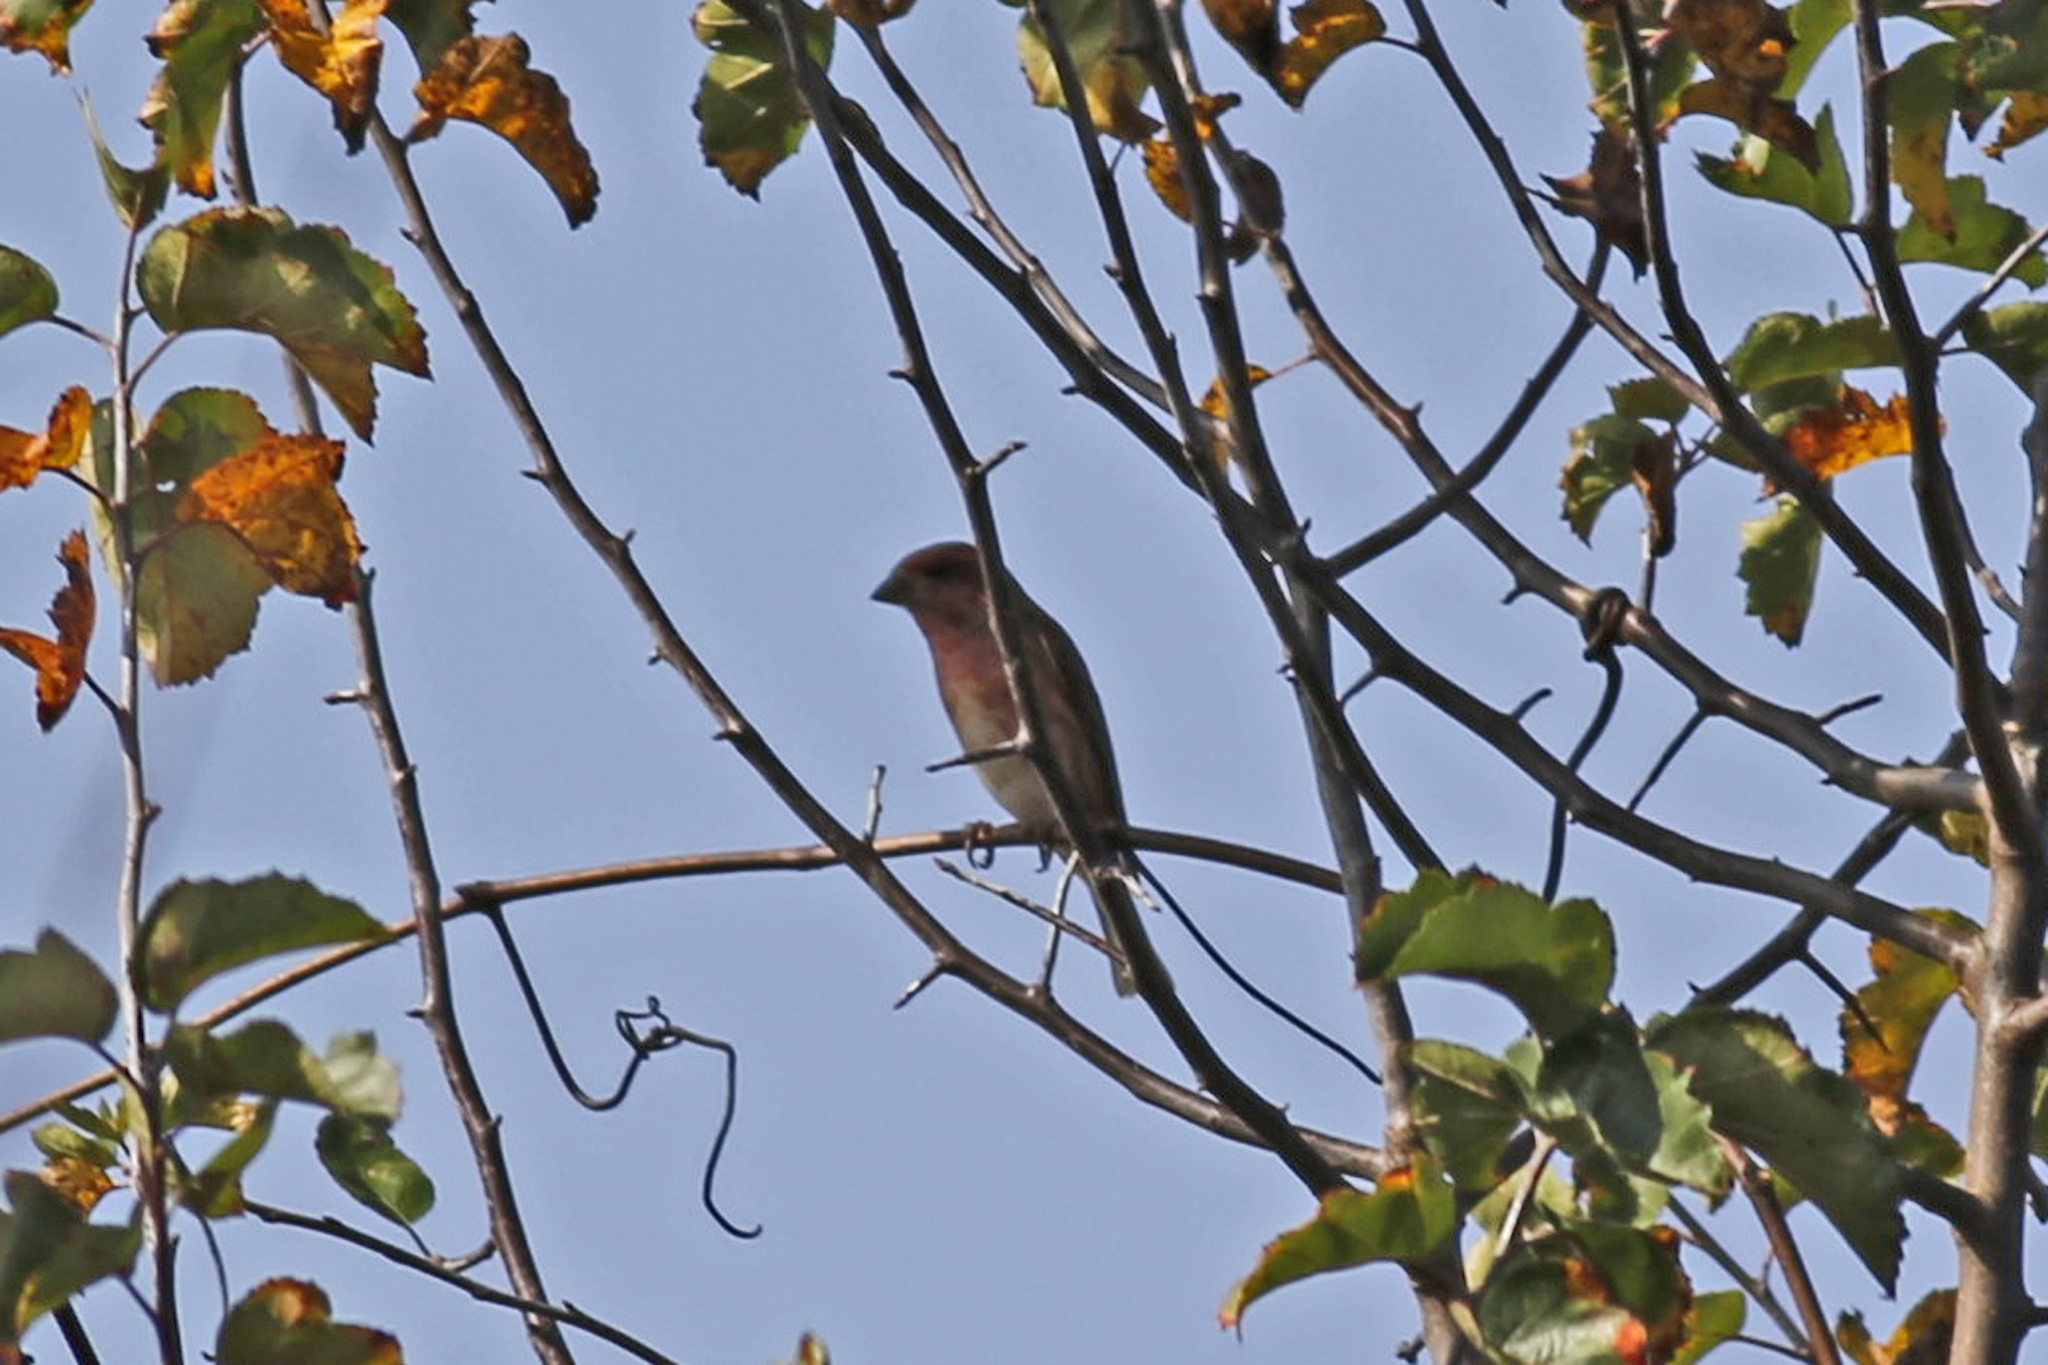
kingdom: Animalia
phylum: Chordata
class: Aves
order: Passeriformes
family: Fringillidae
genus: Haemorhous
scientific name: Haemorhous purpureus
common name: Purple finch
